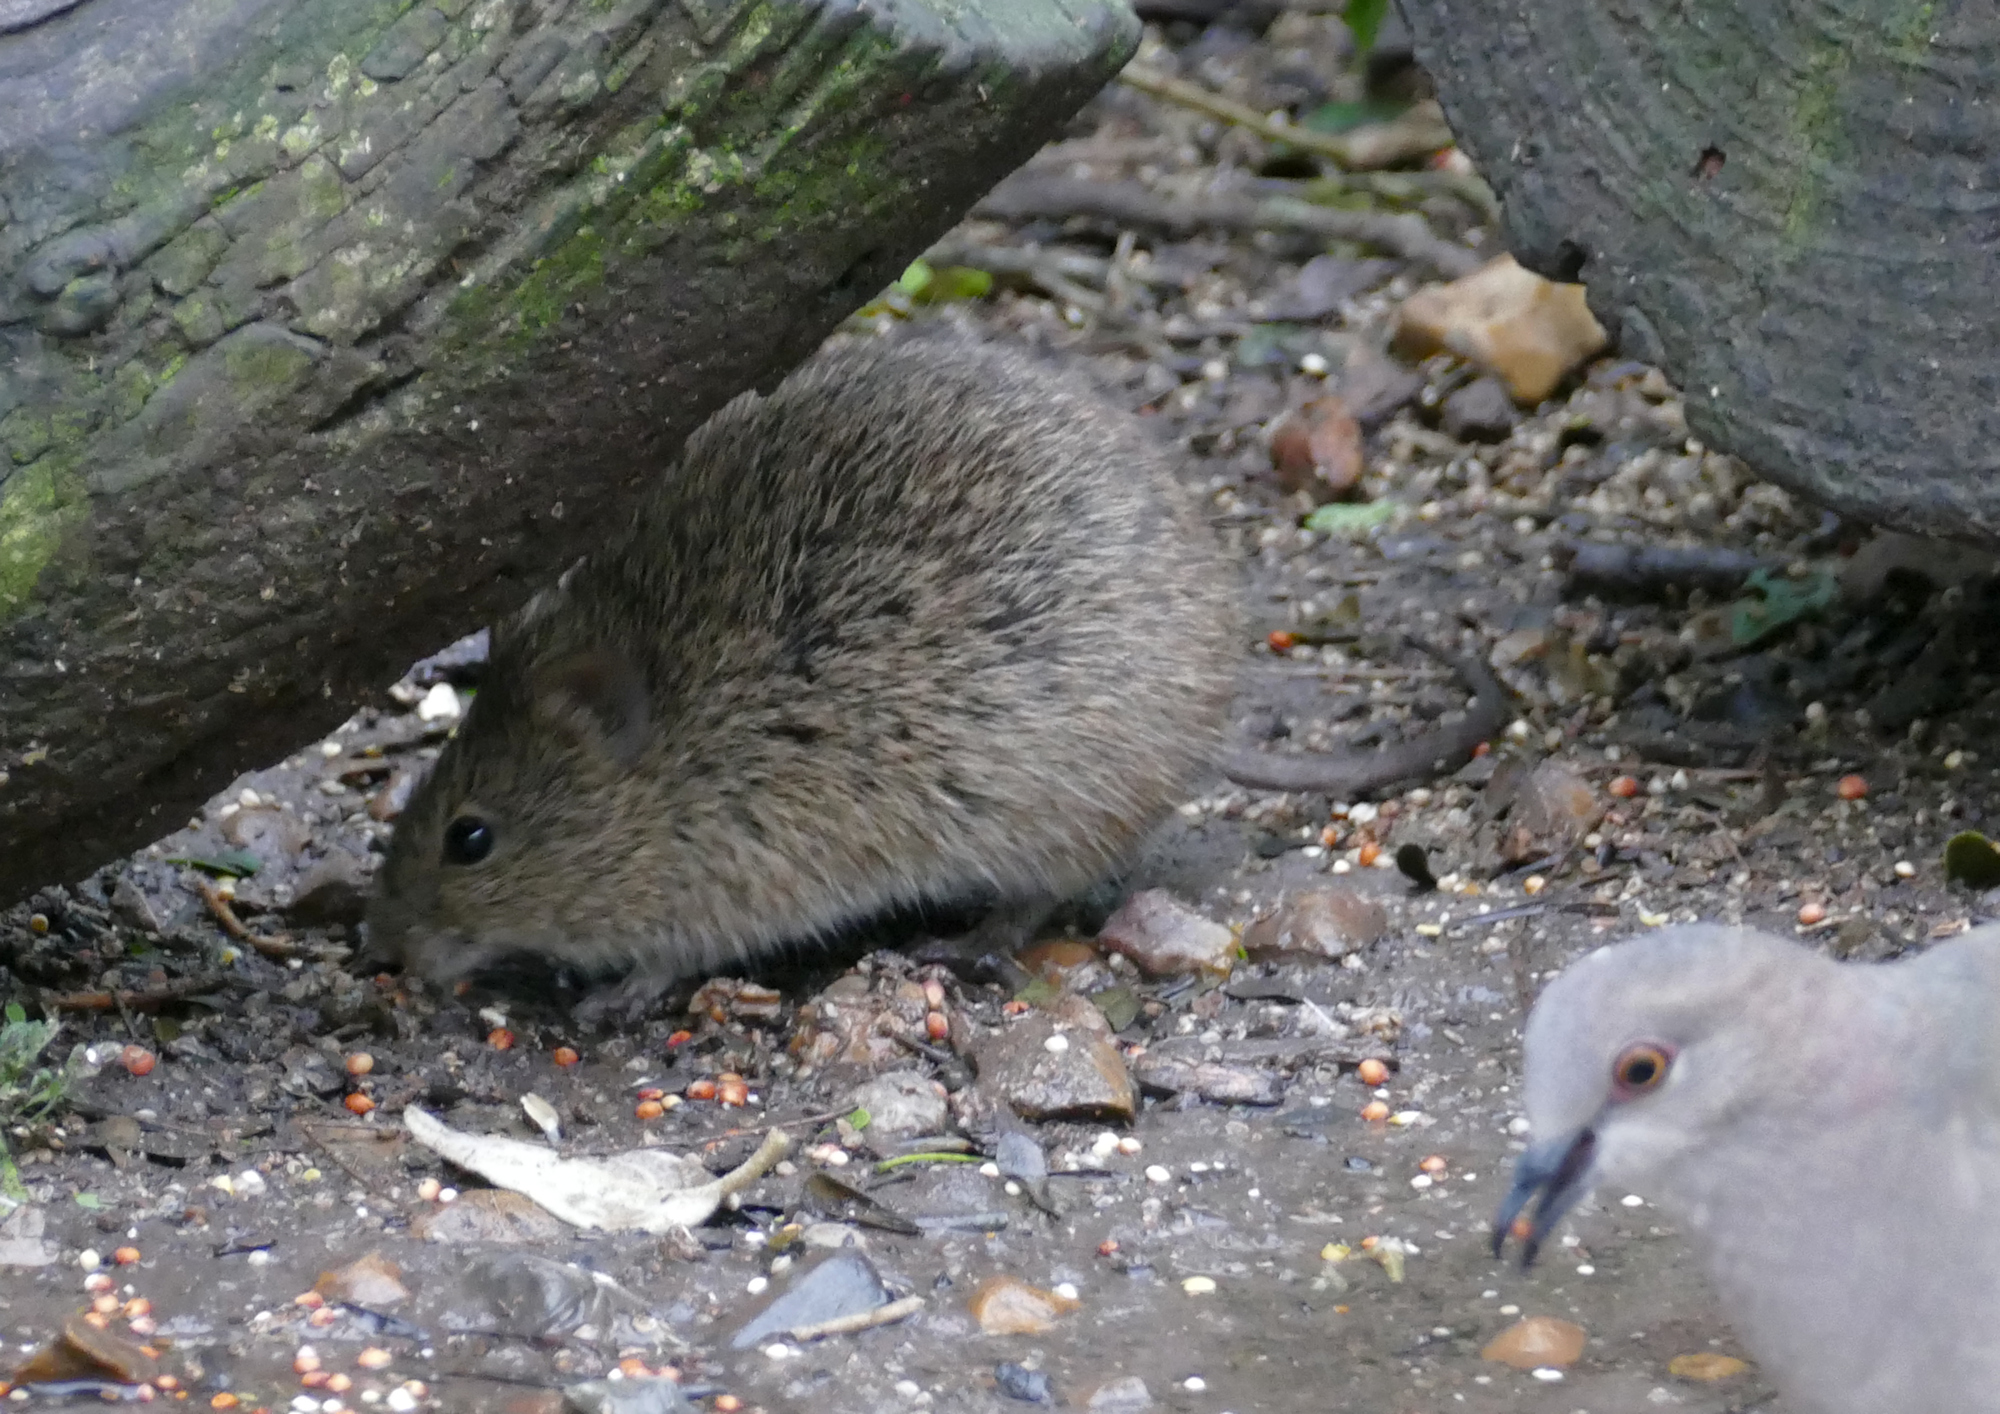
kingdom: Animalia
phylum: Chordata
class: Mammalia
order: Rodentia
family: Cricetidae
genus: Sigmodon
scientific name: Sigmodon hispidus
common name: Hispid cotton rat
